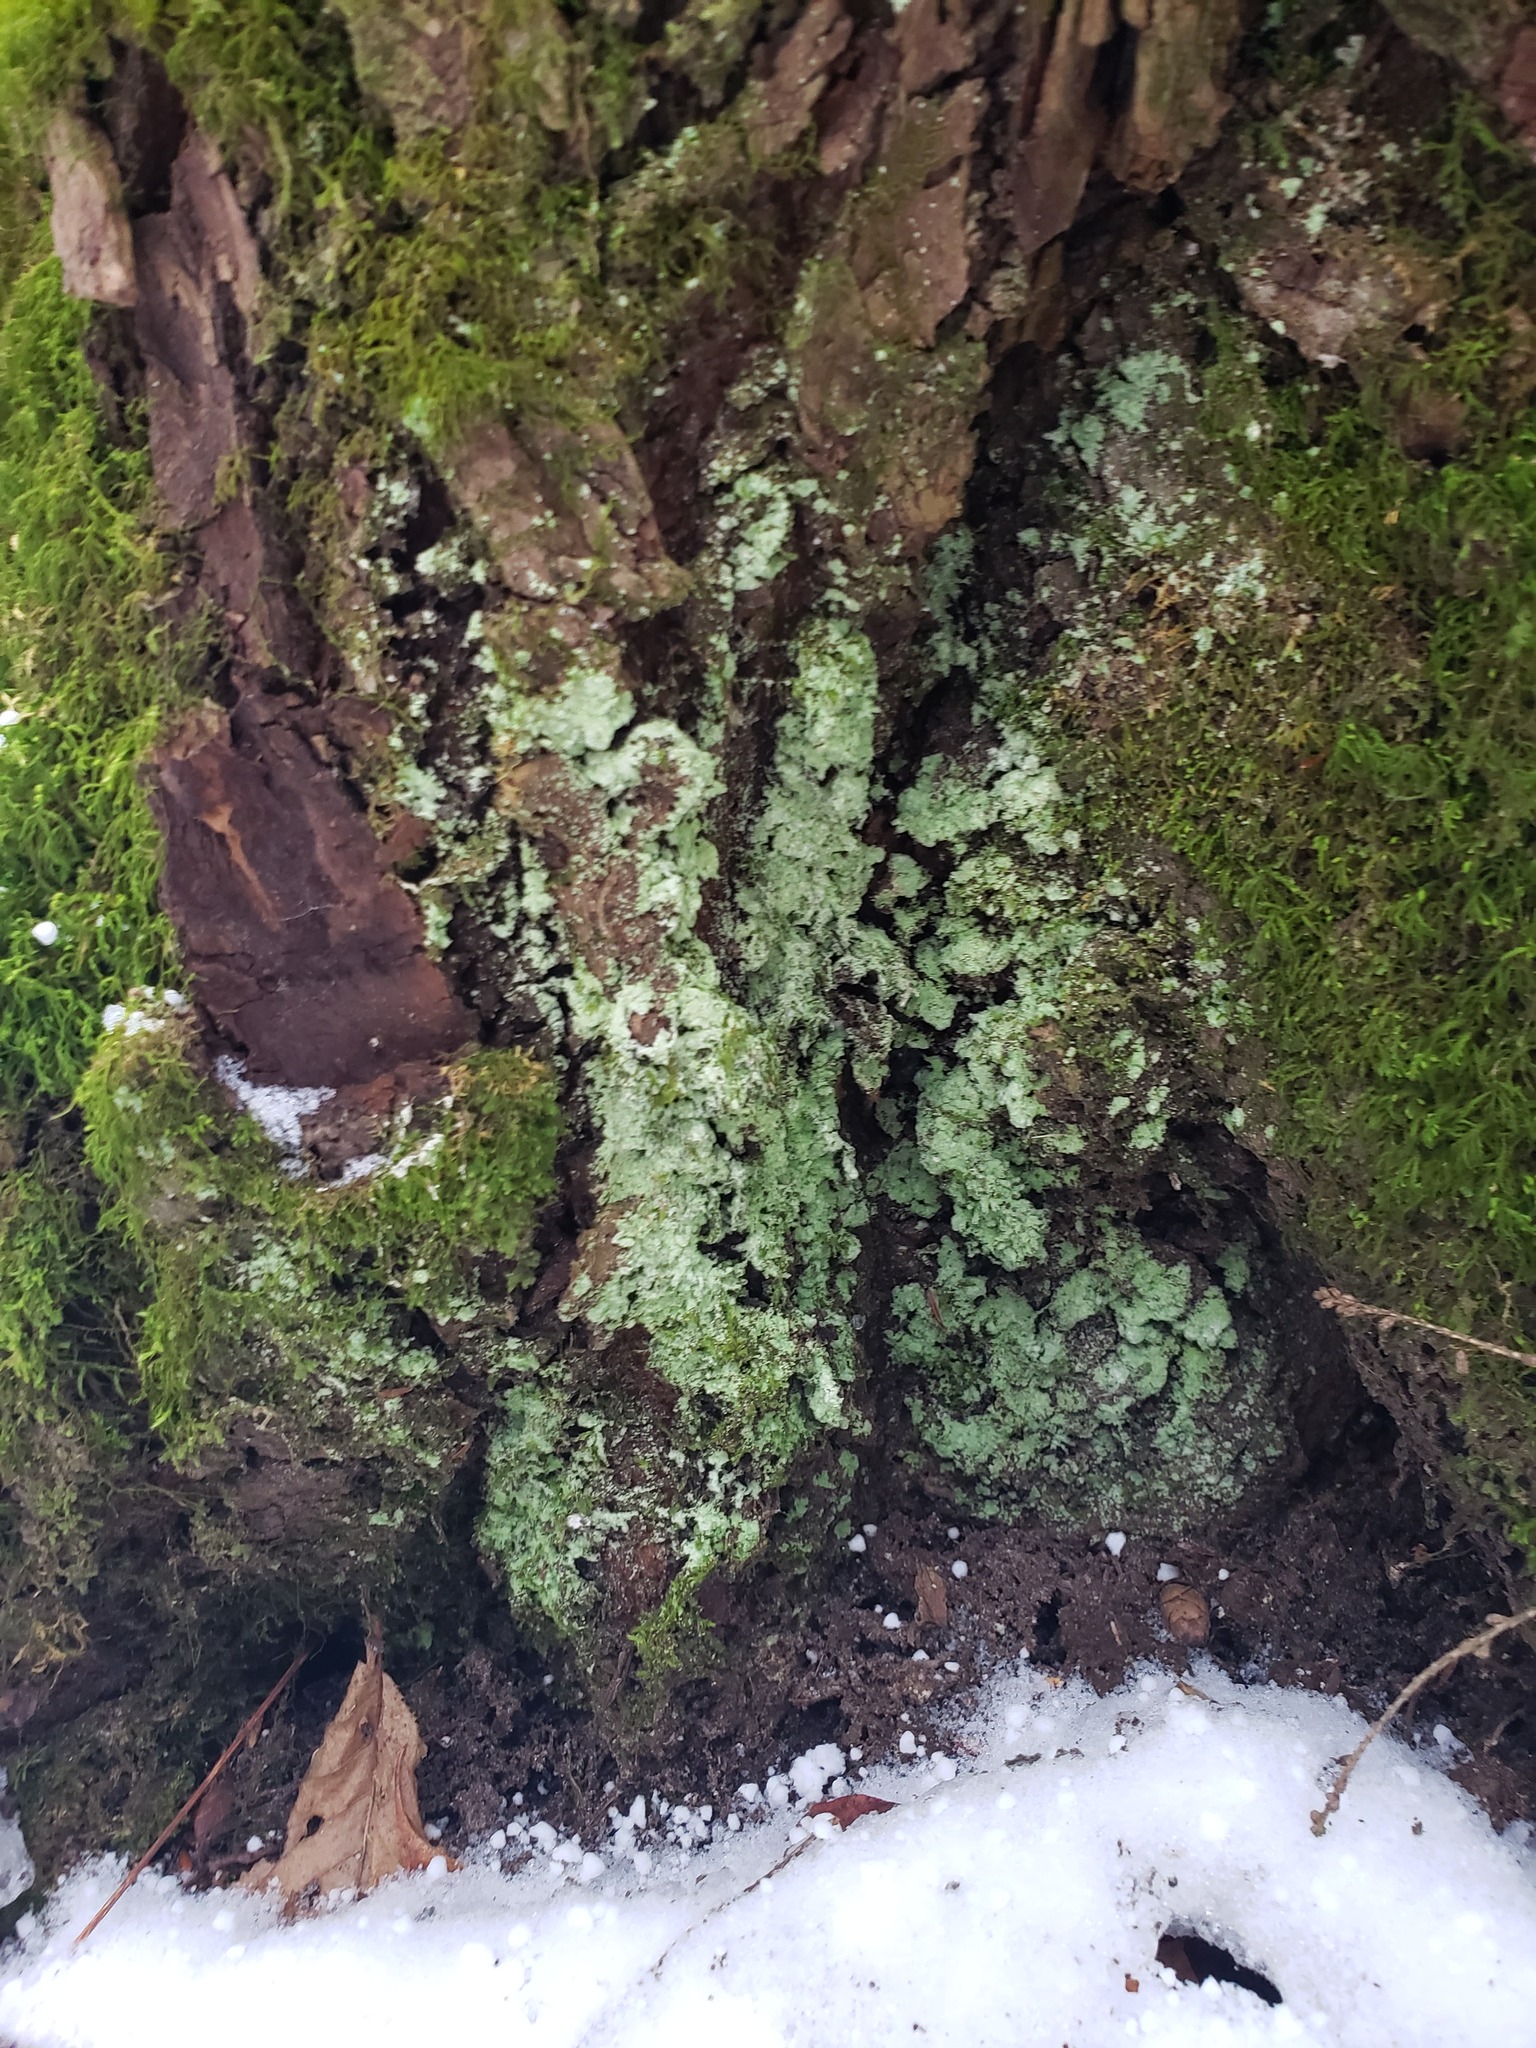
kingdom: Fungi
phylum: Ascomycota
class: Lecanoromycetes
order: Lecanorales
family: Stereocaulaceae
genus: Lepraria
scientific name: Lepraria lobificans
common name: Fluffy dust lichen
